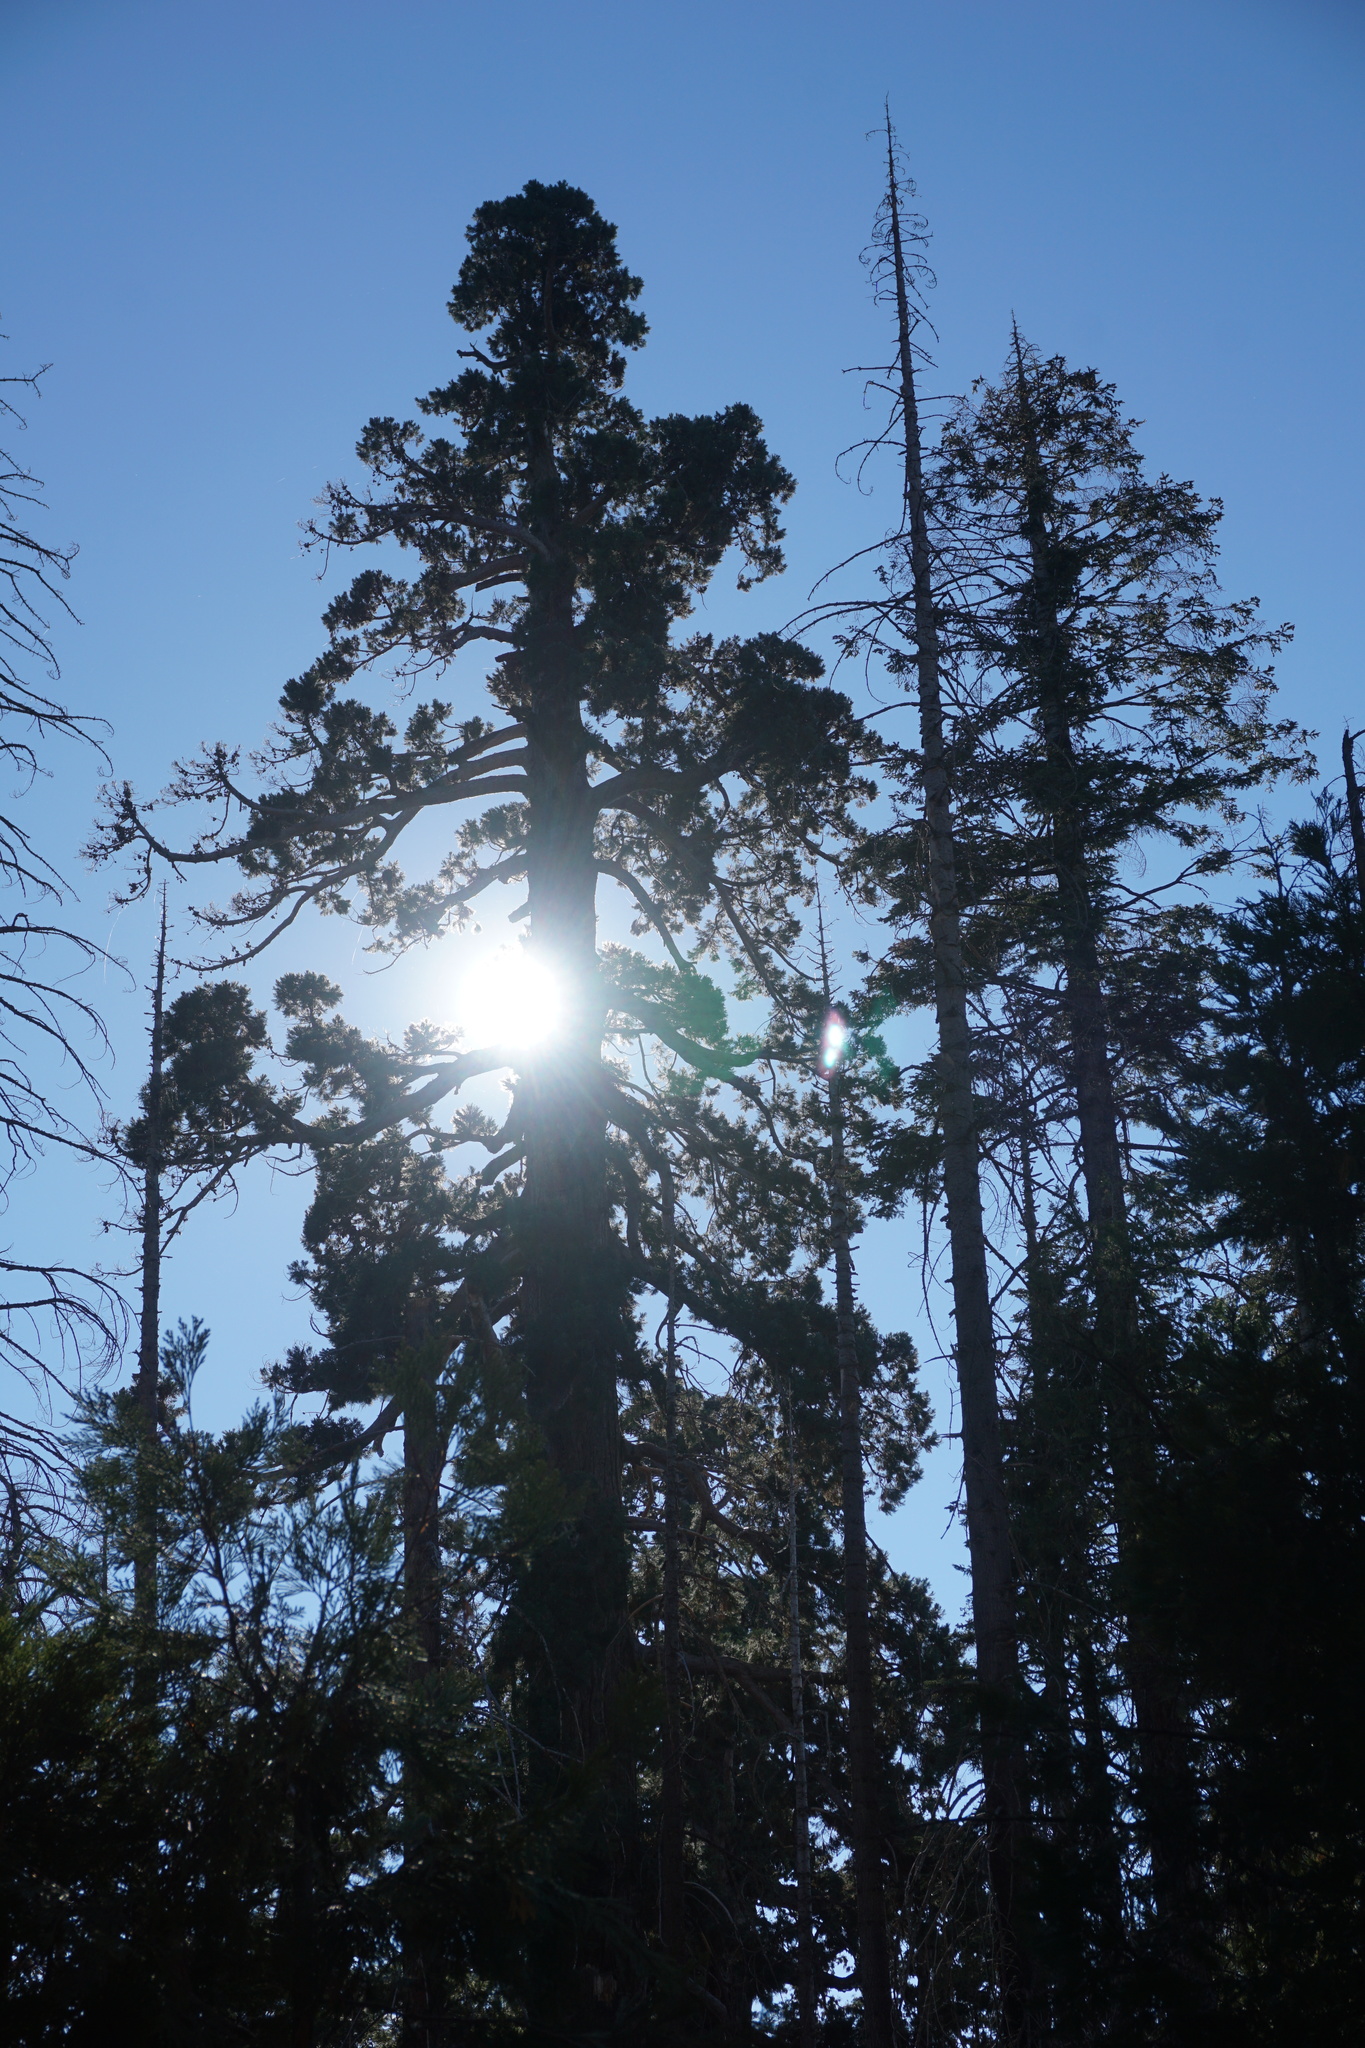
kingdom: Plantae
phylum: Tracheophyta
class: Pinopsida
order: Pinales
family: Cupressaceae
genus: Sequoiadendron
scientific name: Sequoiadendron giganteum
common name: Wellingtonia
